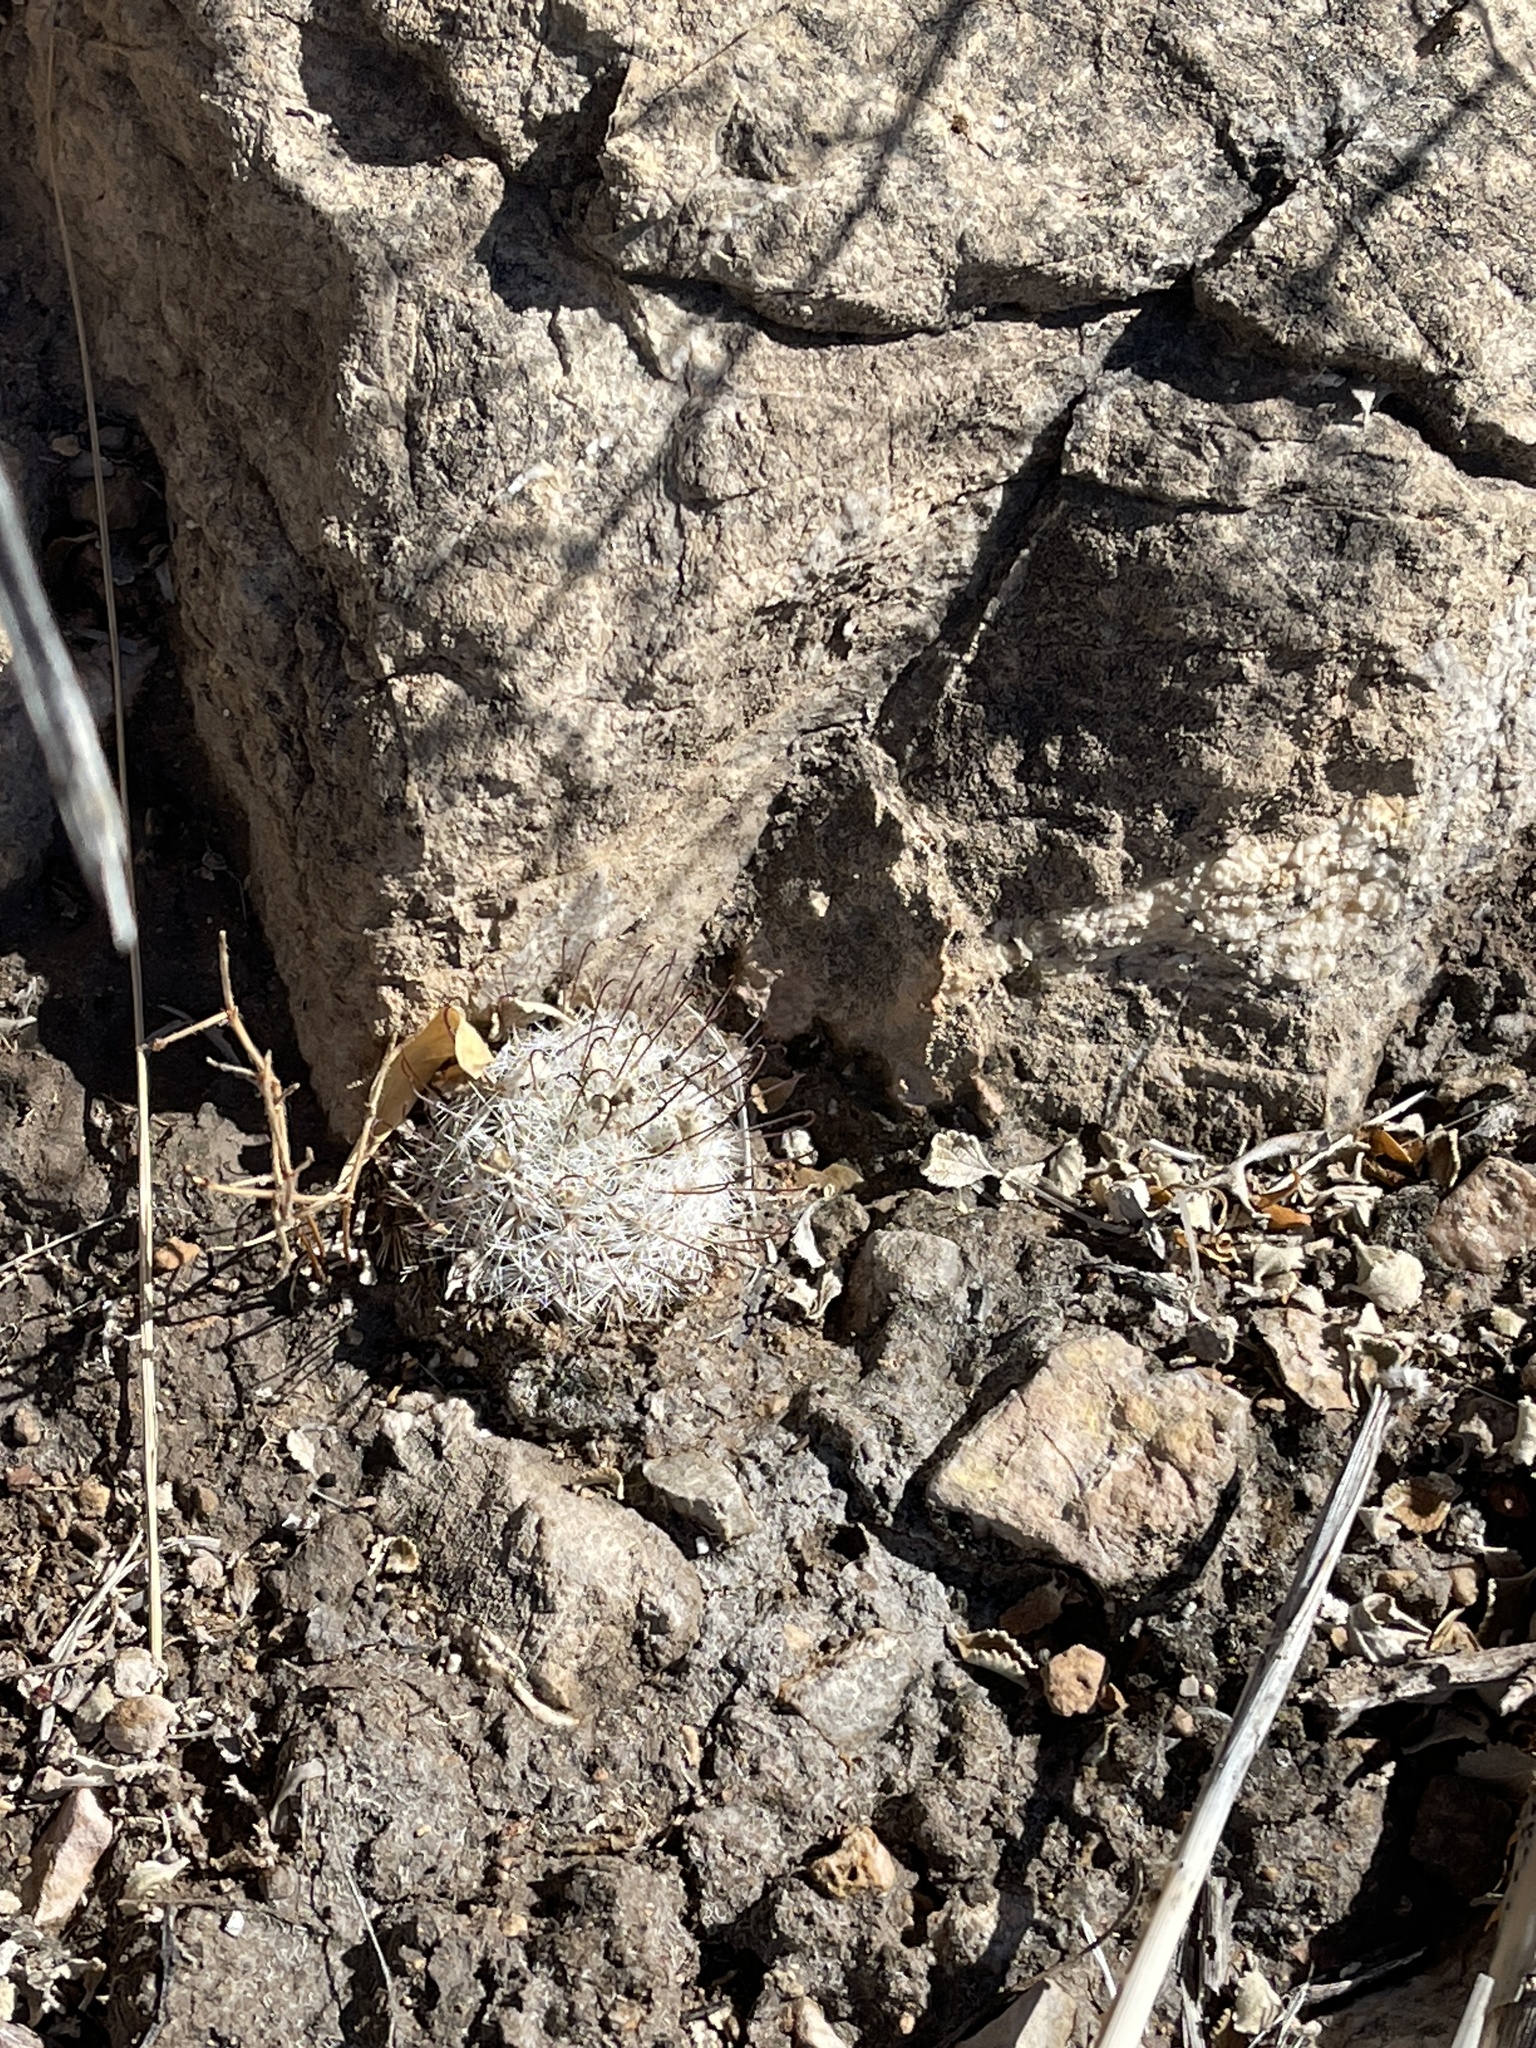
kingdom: Plantae
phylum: Tracheophyta
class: Magnoliopsida
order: Caryophyllales
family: Cactaceae
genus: Cochemiea
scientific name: Cochemiea grahamii
